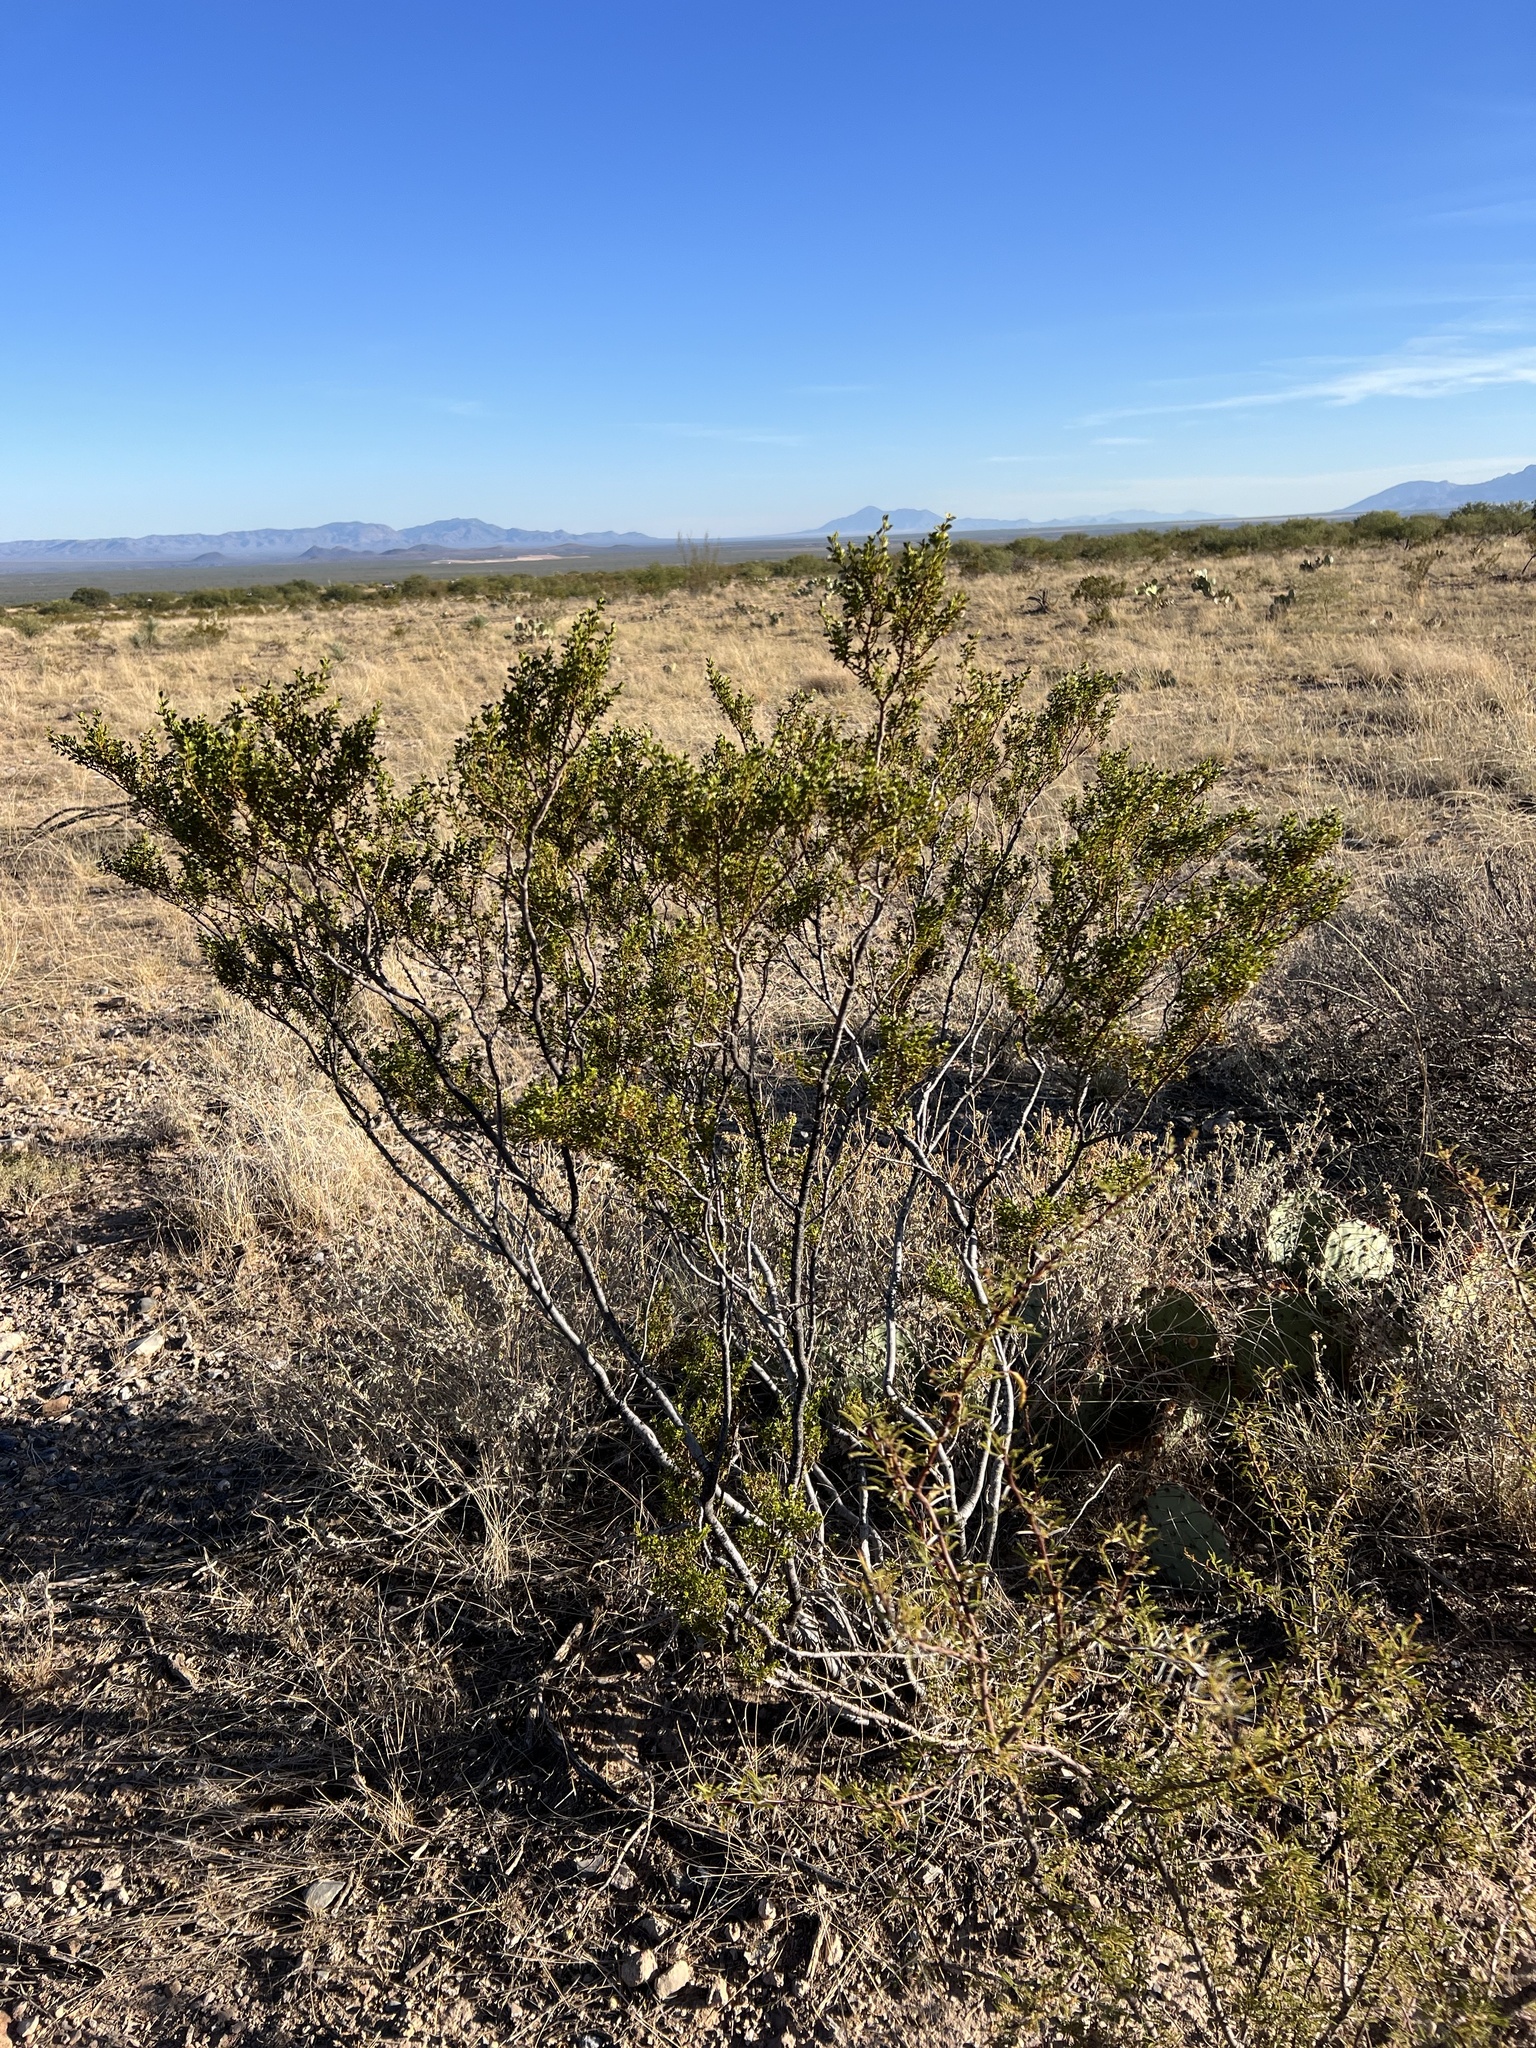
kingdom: Plantae
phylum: Tracheophyta
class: Magnoliopsida
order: Zygophyllales
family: Zygophyllaceae
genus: Larrea
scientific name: Larrea tridentata
